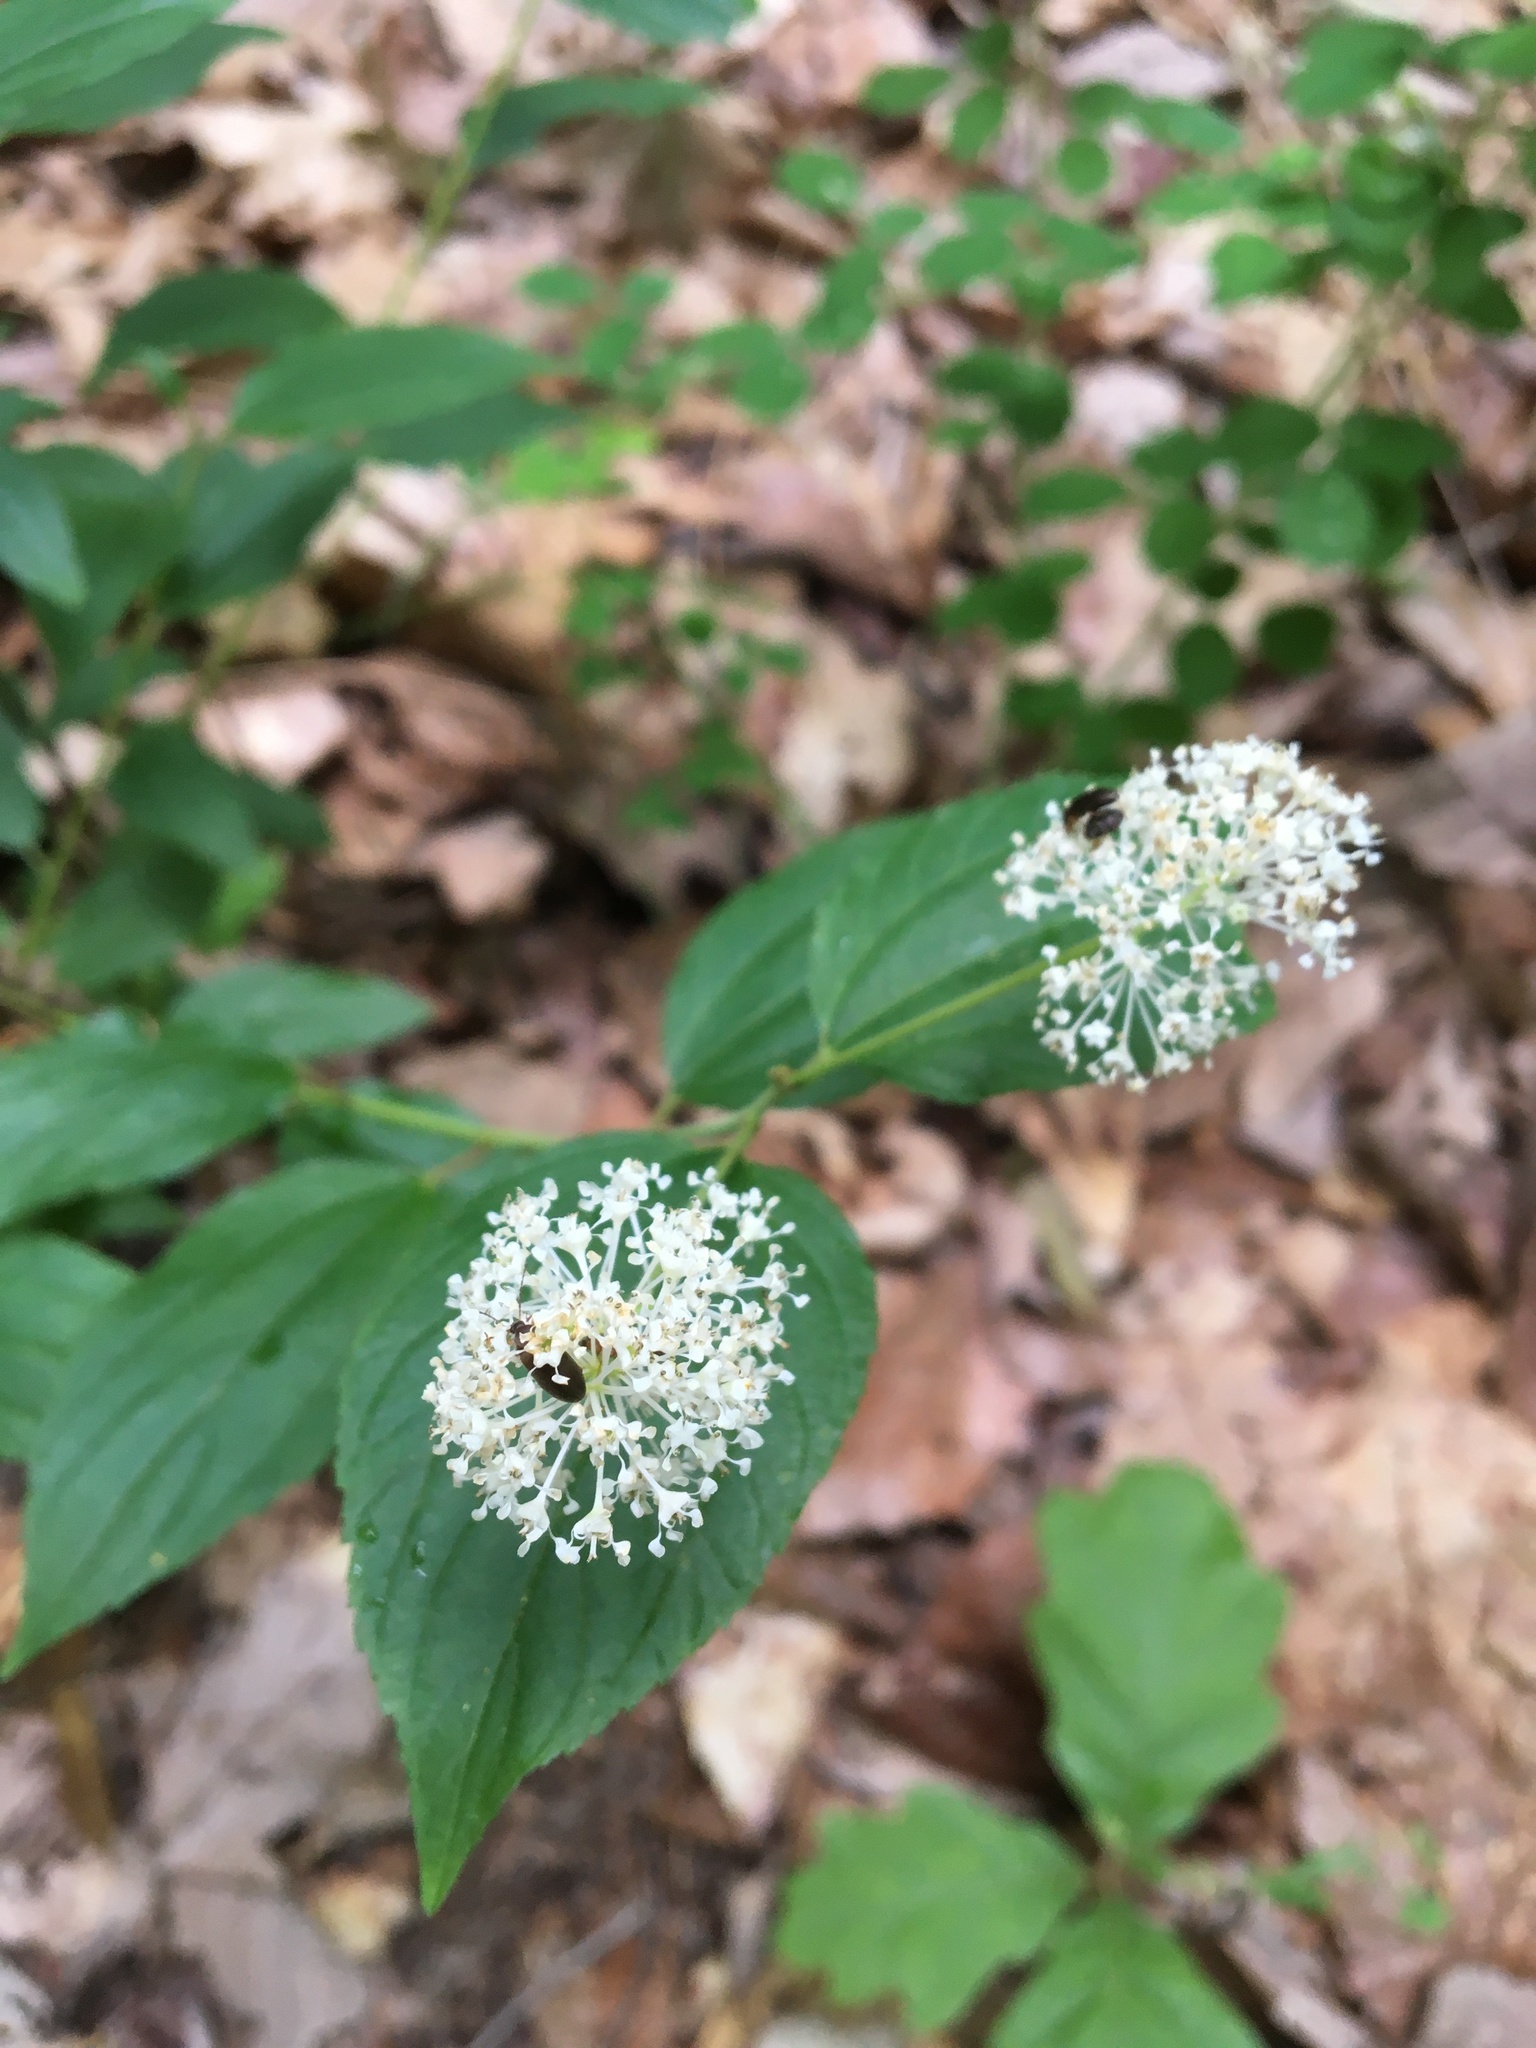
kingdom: Plantae
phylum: Tracheophyta
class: Magnoliopsida
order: Rosales
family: Rhamnaceae
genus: Ceanothus
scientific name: Ceanothus americanus
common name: Redroot
